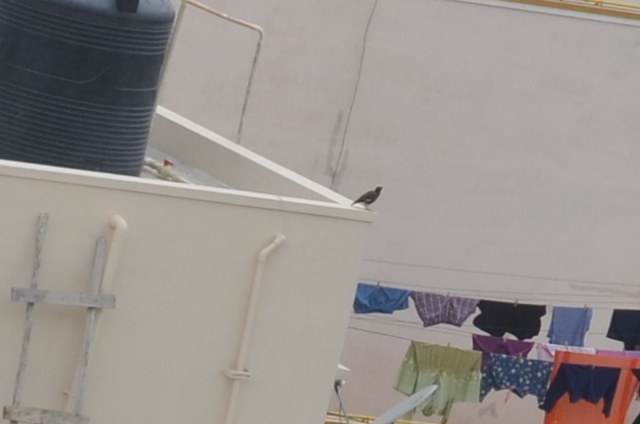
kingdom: Animalia
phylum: Chordata
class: Aves
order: Passeriformes
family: Sturnidae
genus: Acridotheres
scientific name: Acridotheres tristis
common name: Common myna
